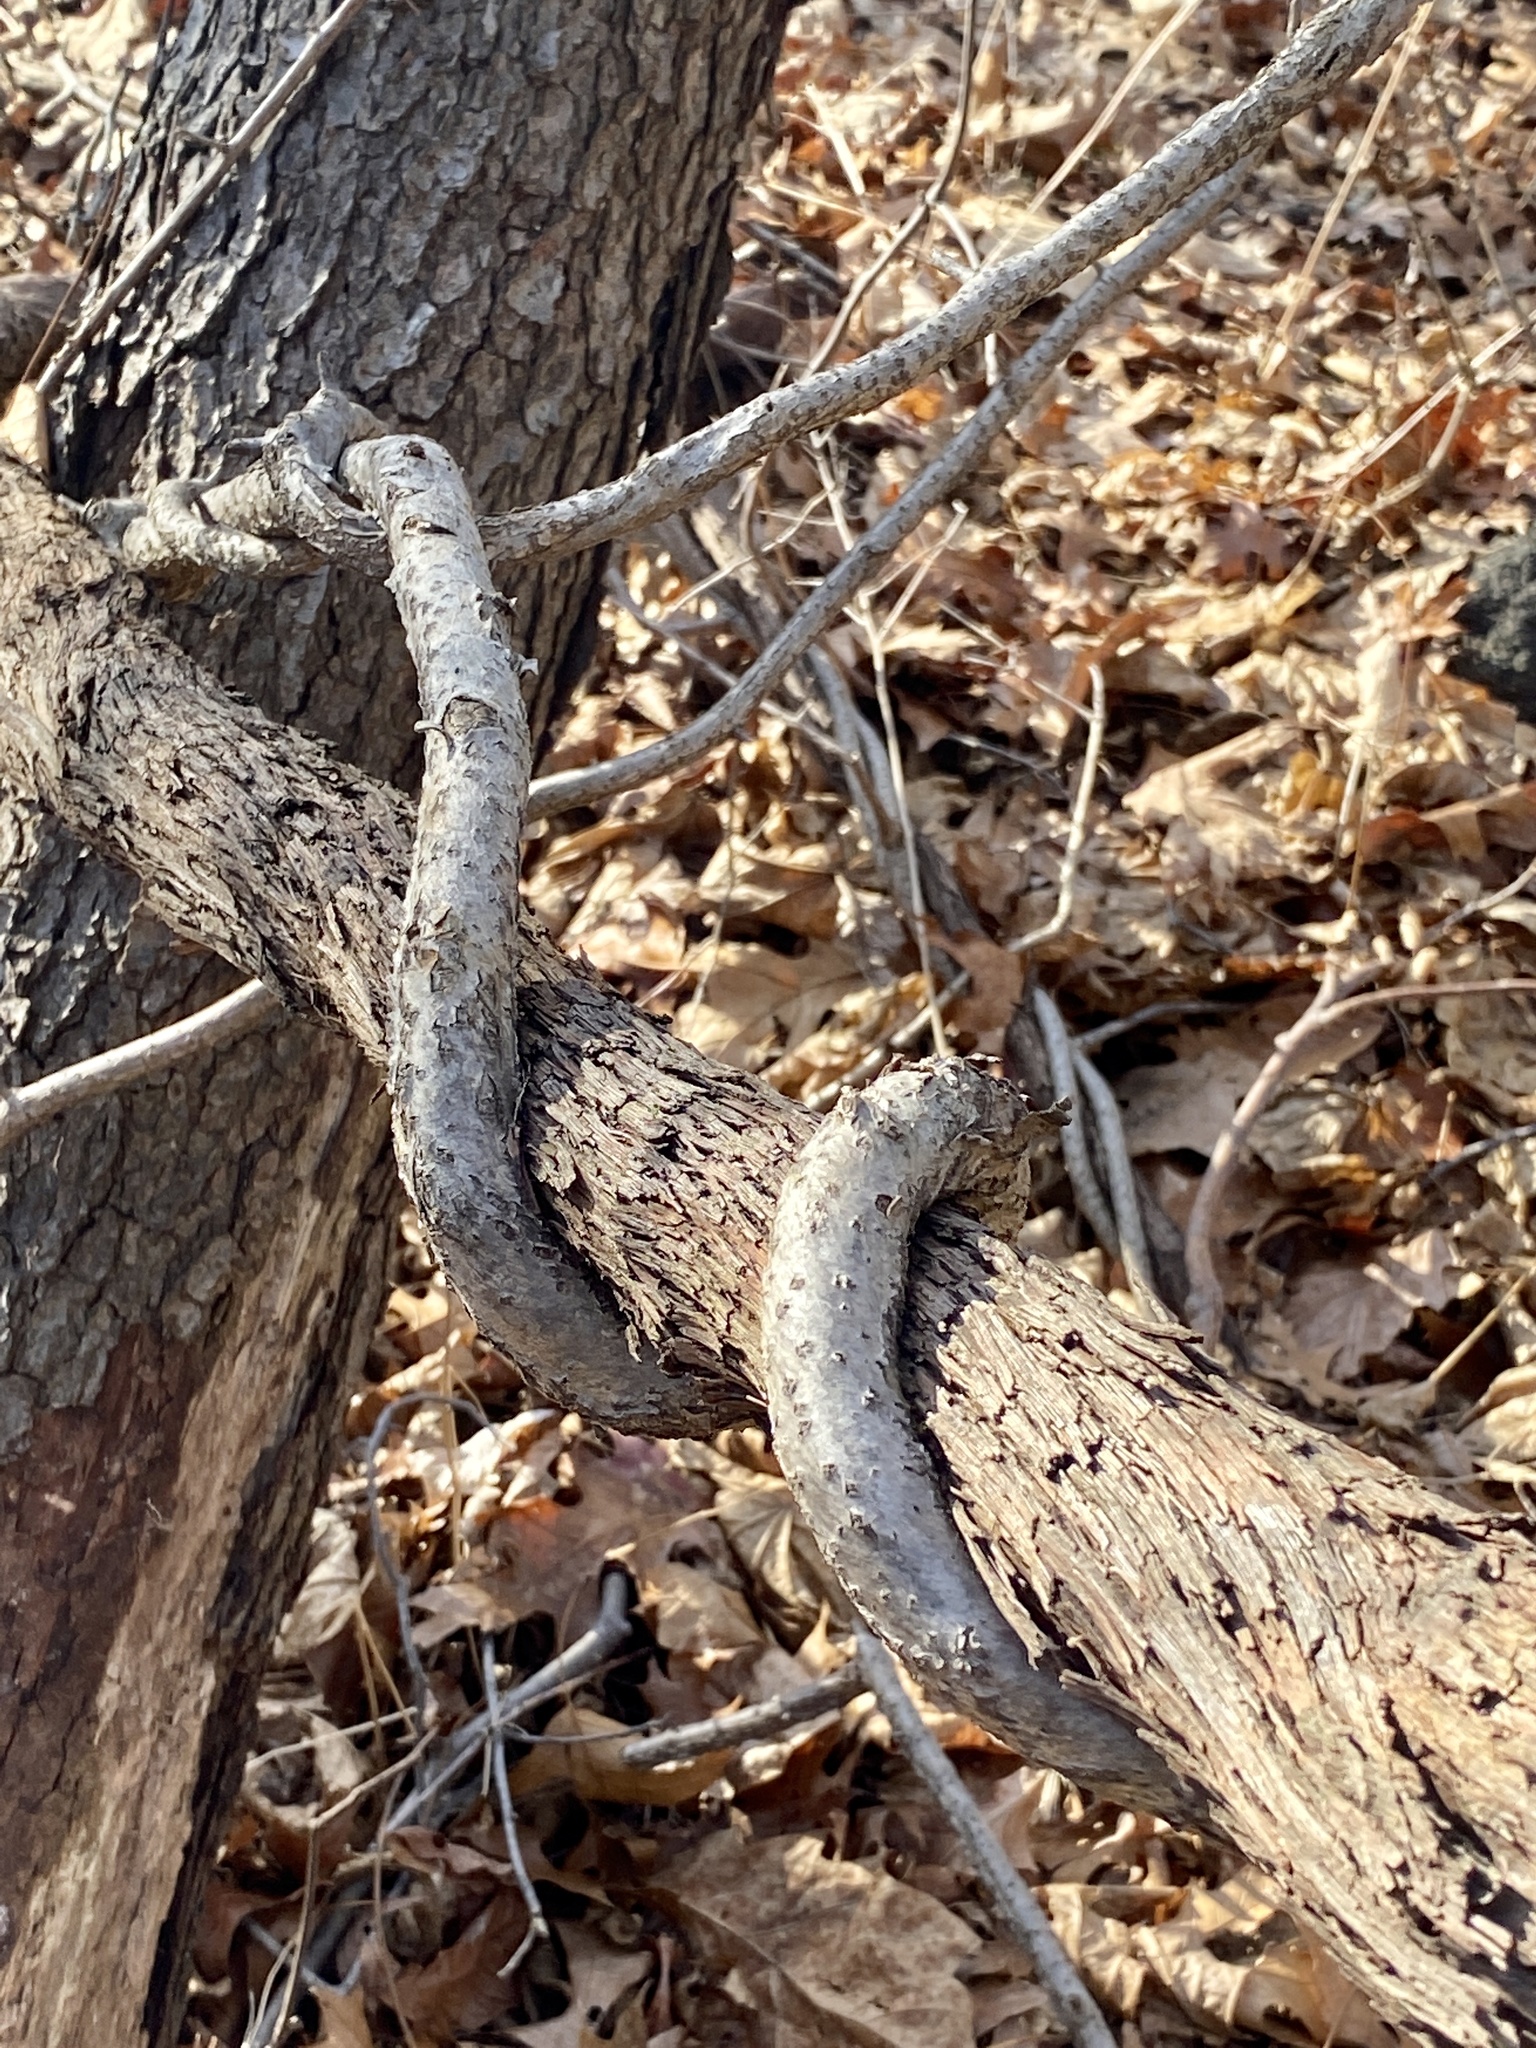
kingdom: Plantae
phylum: Tracheophyta
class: Magnoliopsida
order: Celastrales
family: Celastraceae
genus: Celastrus
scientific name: Celastrus orbiculatus
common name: Oriental bittersweet
